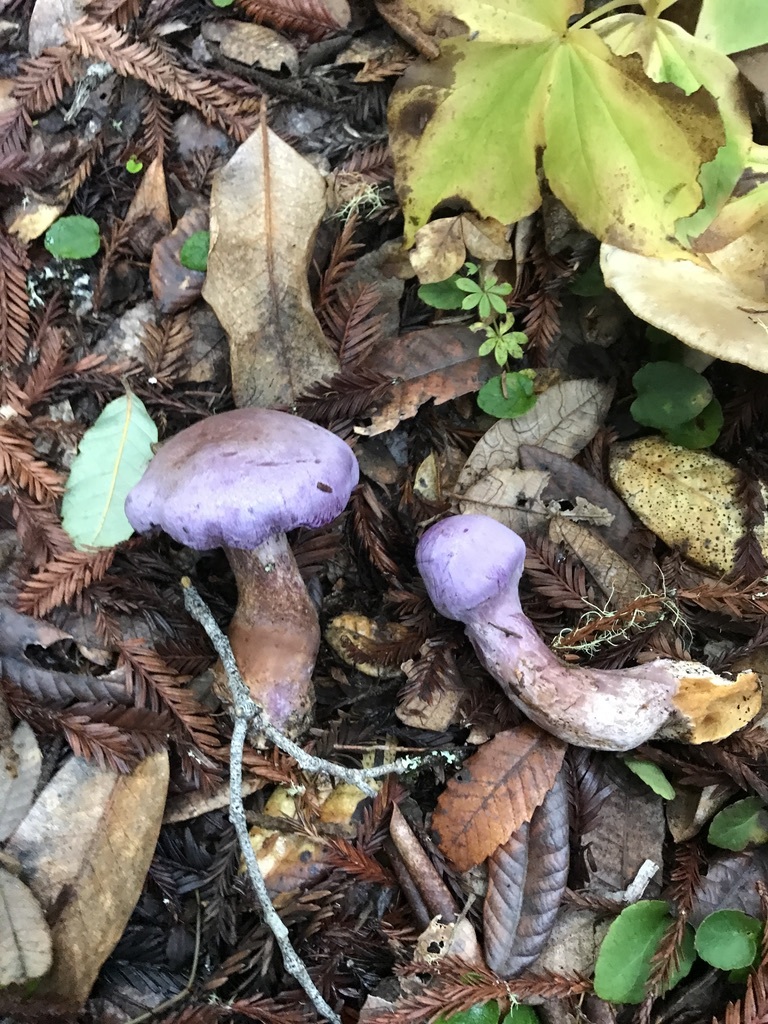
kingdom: Fungi
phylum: Basidiomycota
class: Agaricomycetes
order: Agaricales
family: Cortinariaceae
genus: Cortinarius
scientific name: Cortinarius traganus
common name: Gassy webcap
